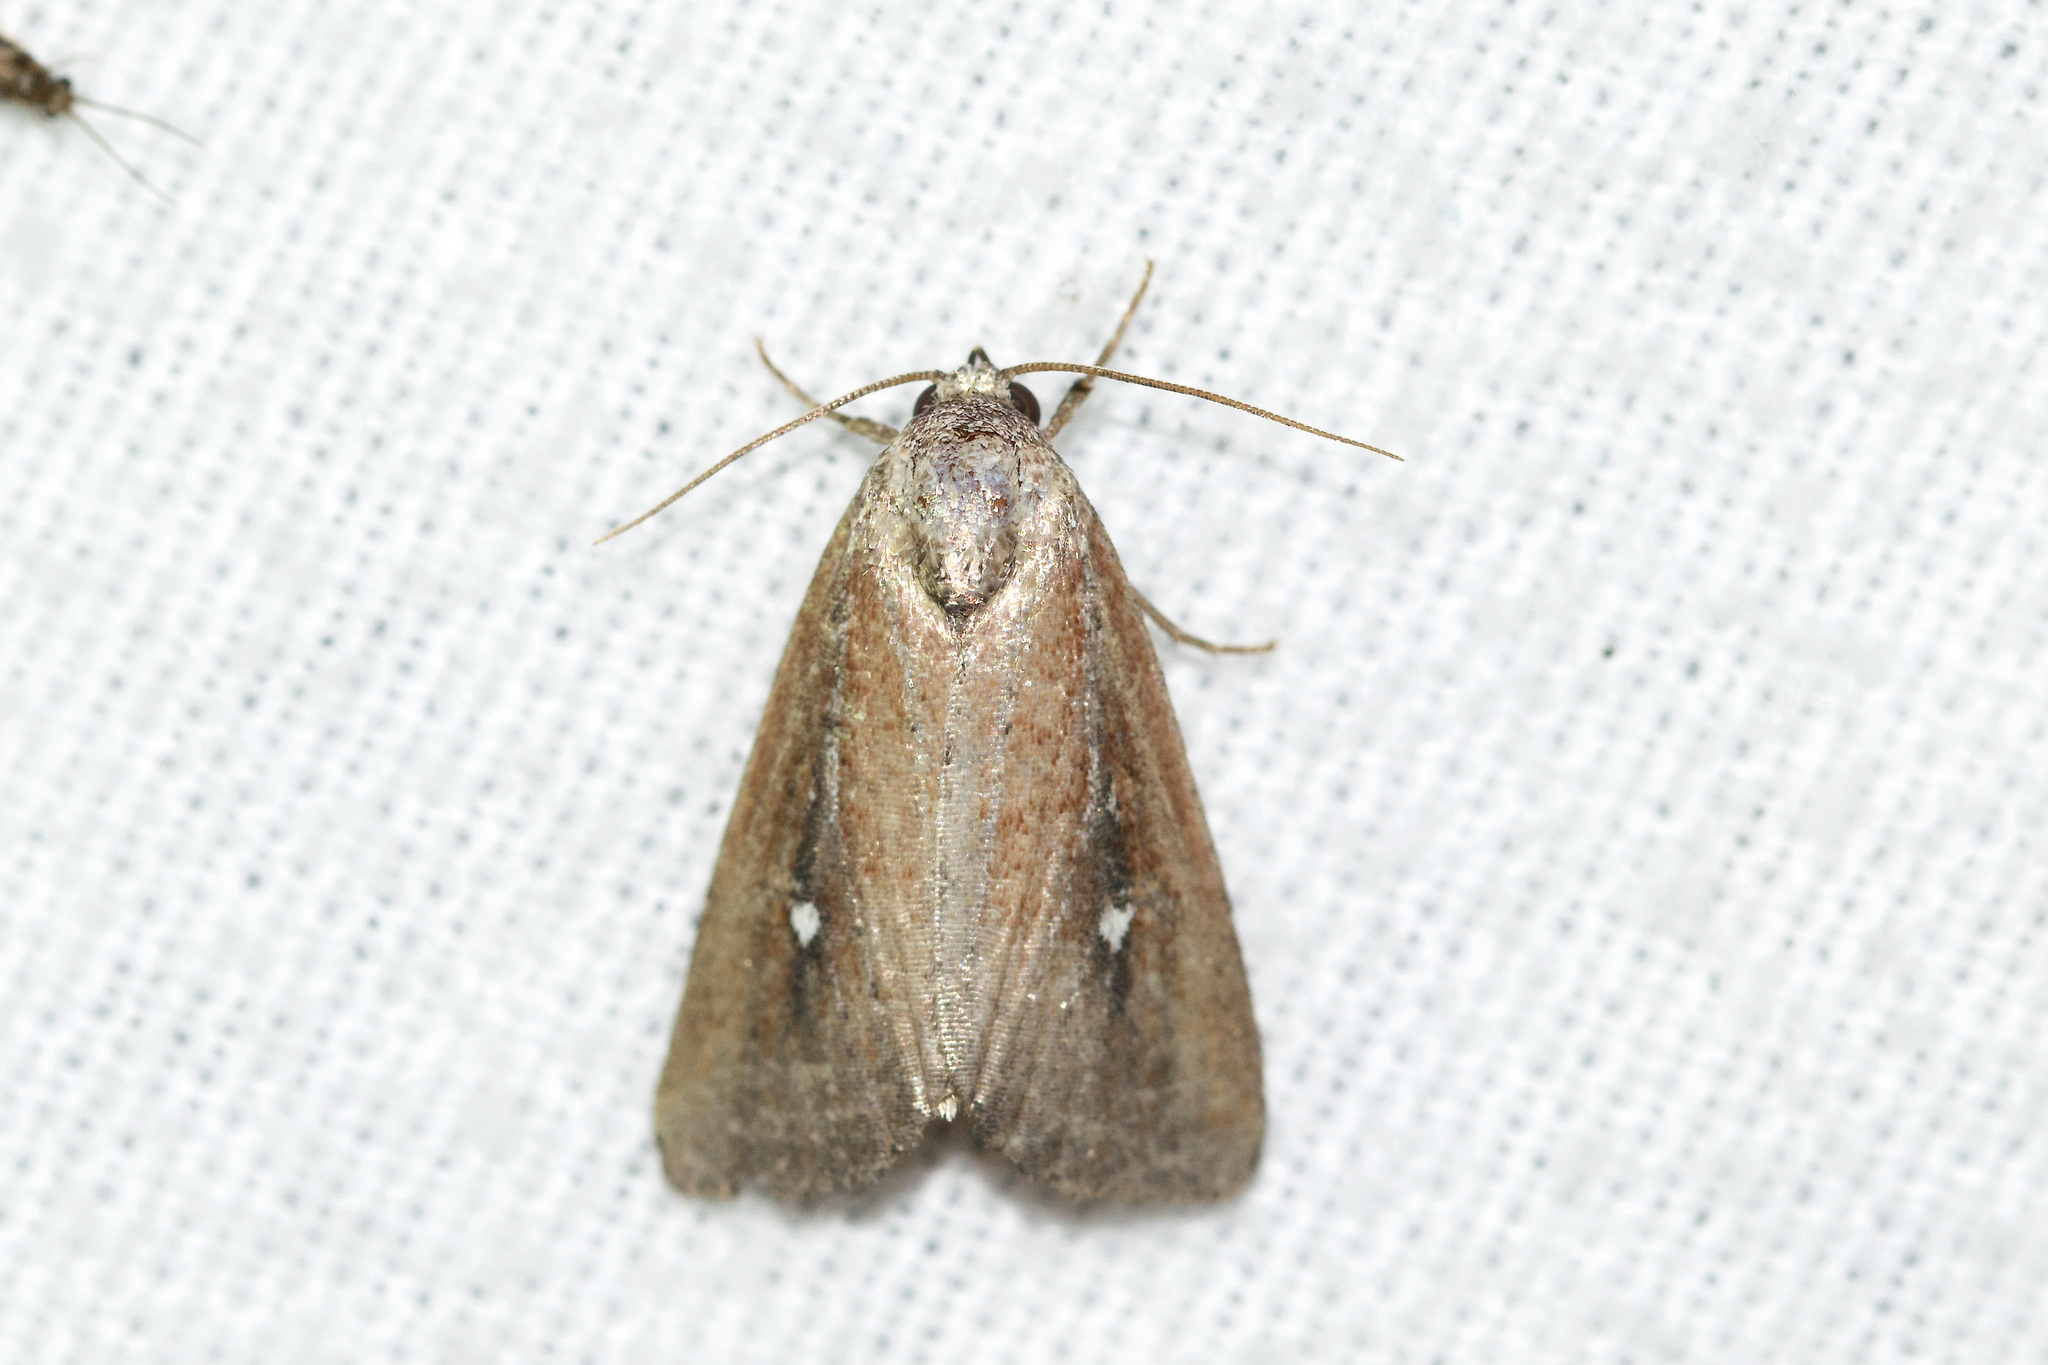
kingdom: Animalia
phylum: Arthropoda
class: Insecta
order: Lepidoptera
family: Noctuidae
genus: Condica
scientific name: Condica videns
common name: White-dotted groundling
